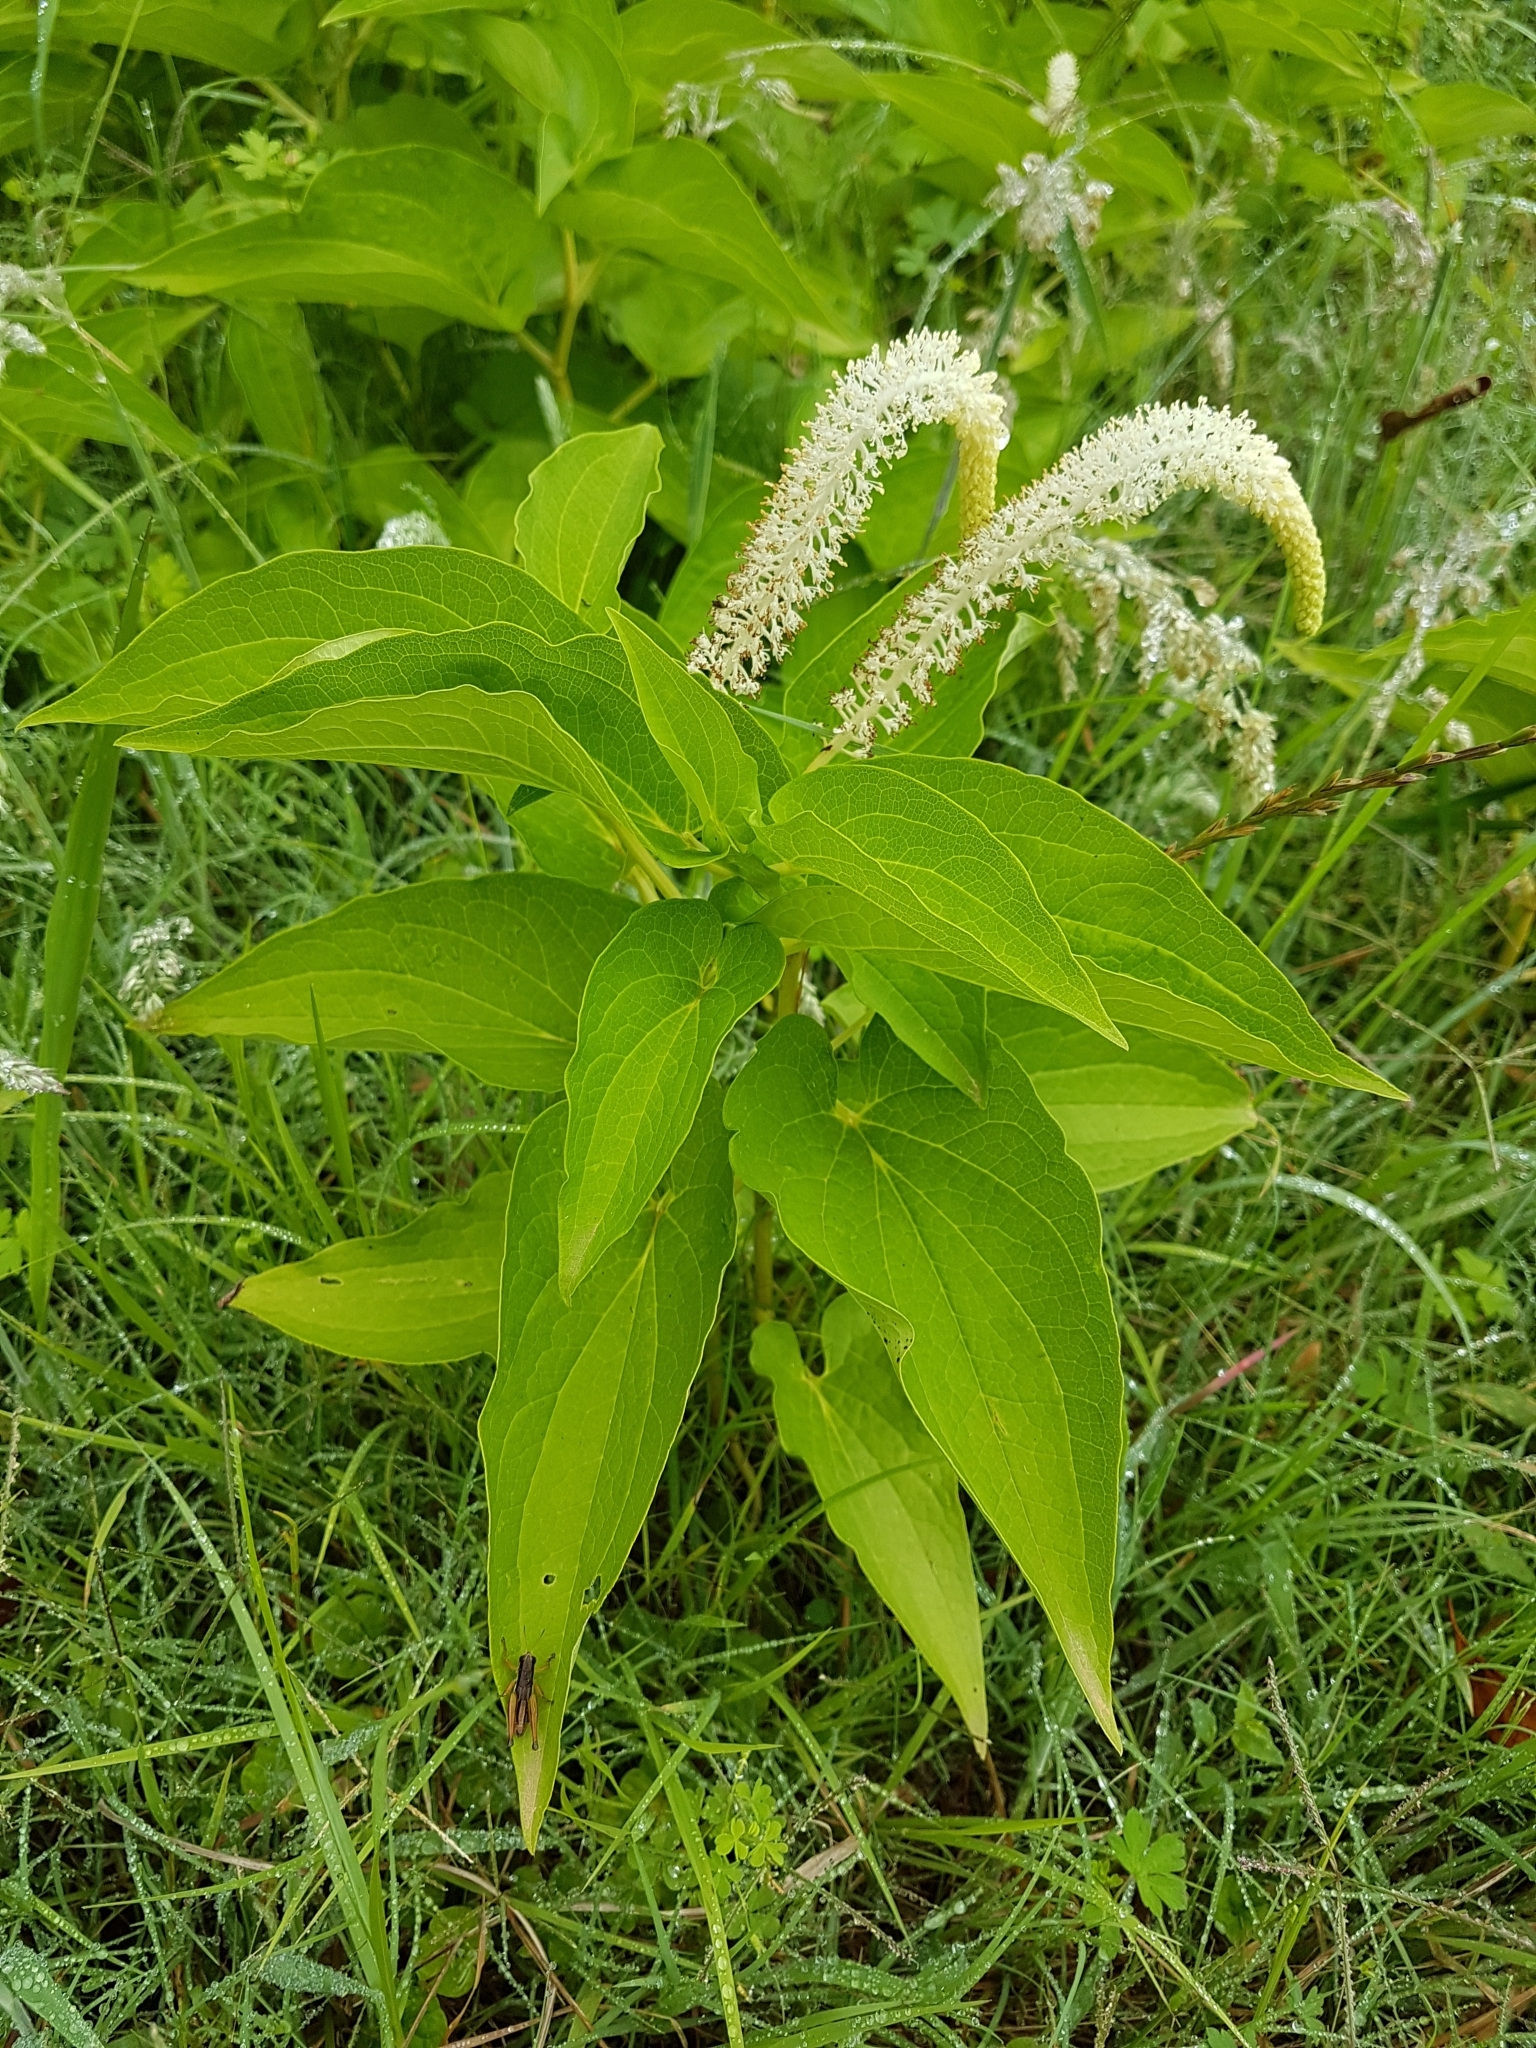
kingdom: Plantae
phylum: Tracheophyta
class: Magnoliopsida
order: Piperales
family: Saururaceae
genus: Saururus
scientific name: Saururus cernuus
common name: Lizard's-tail
